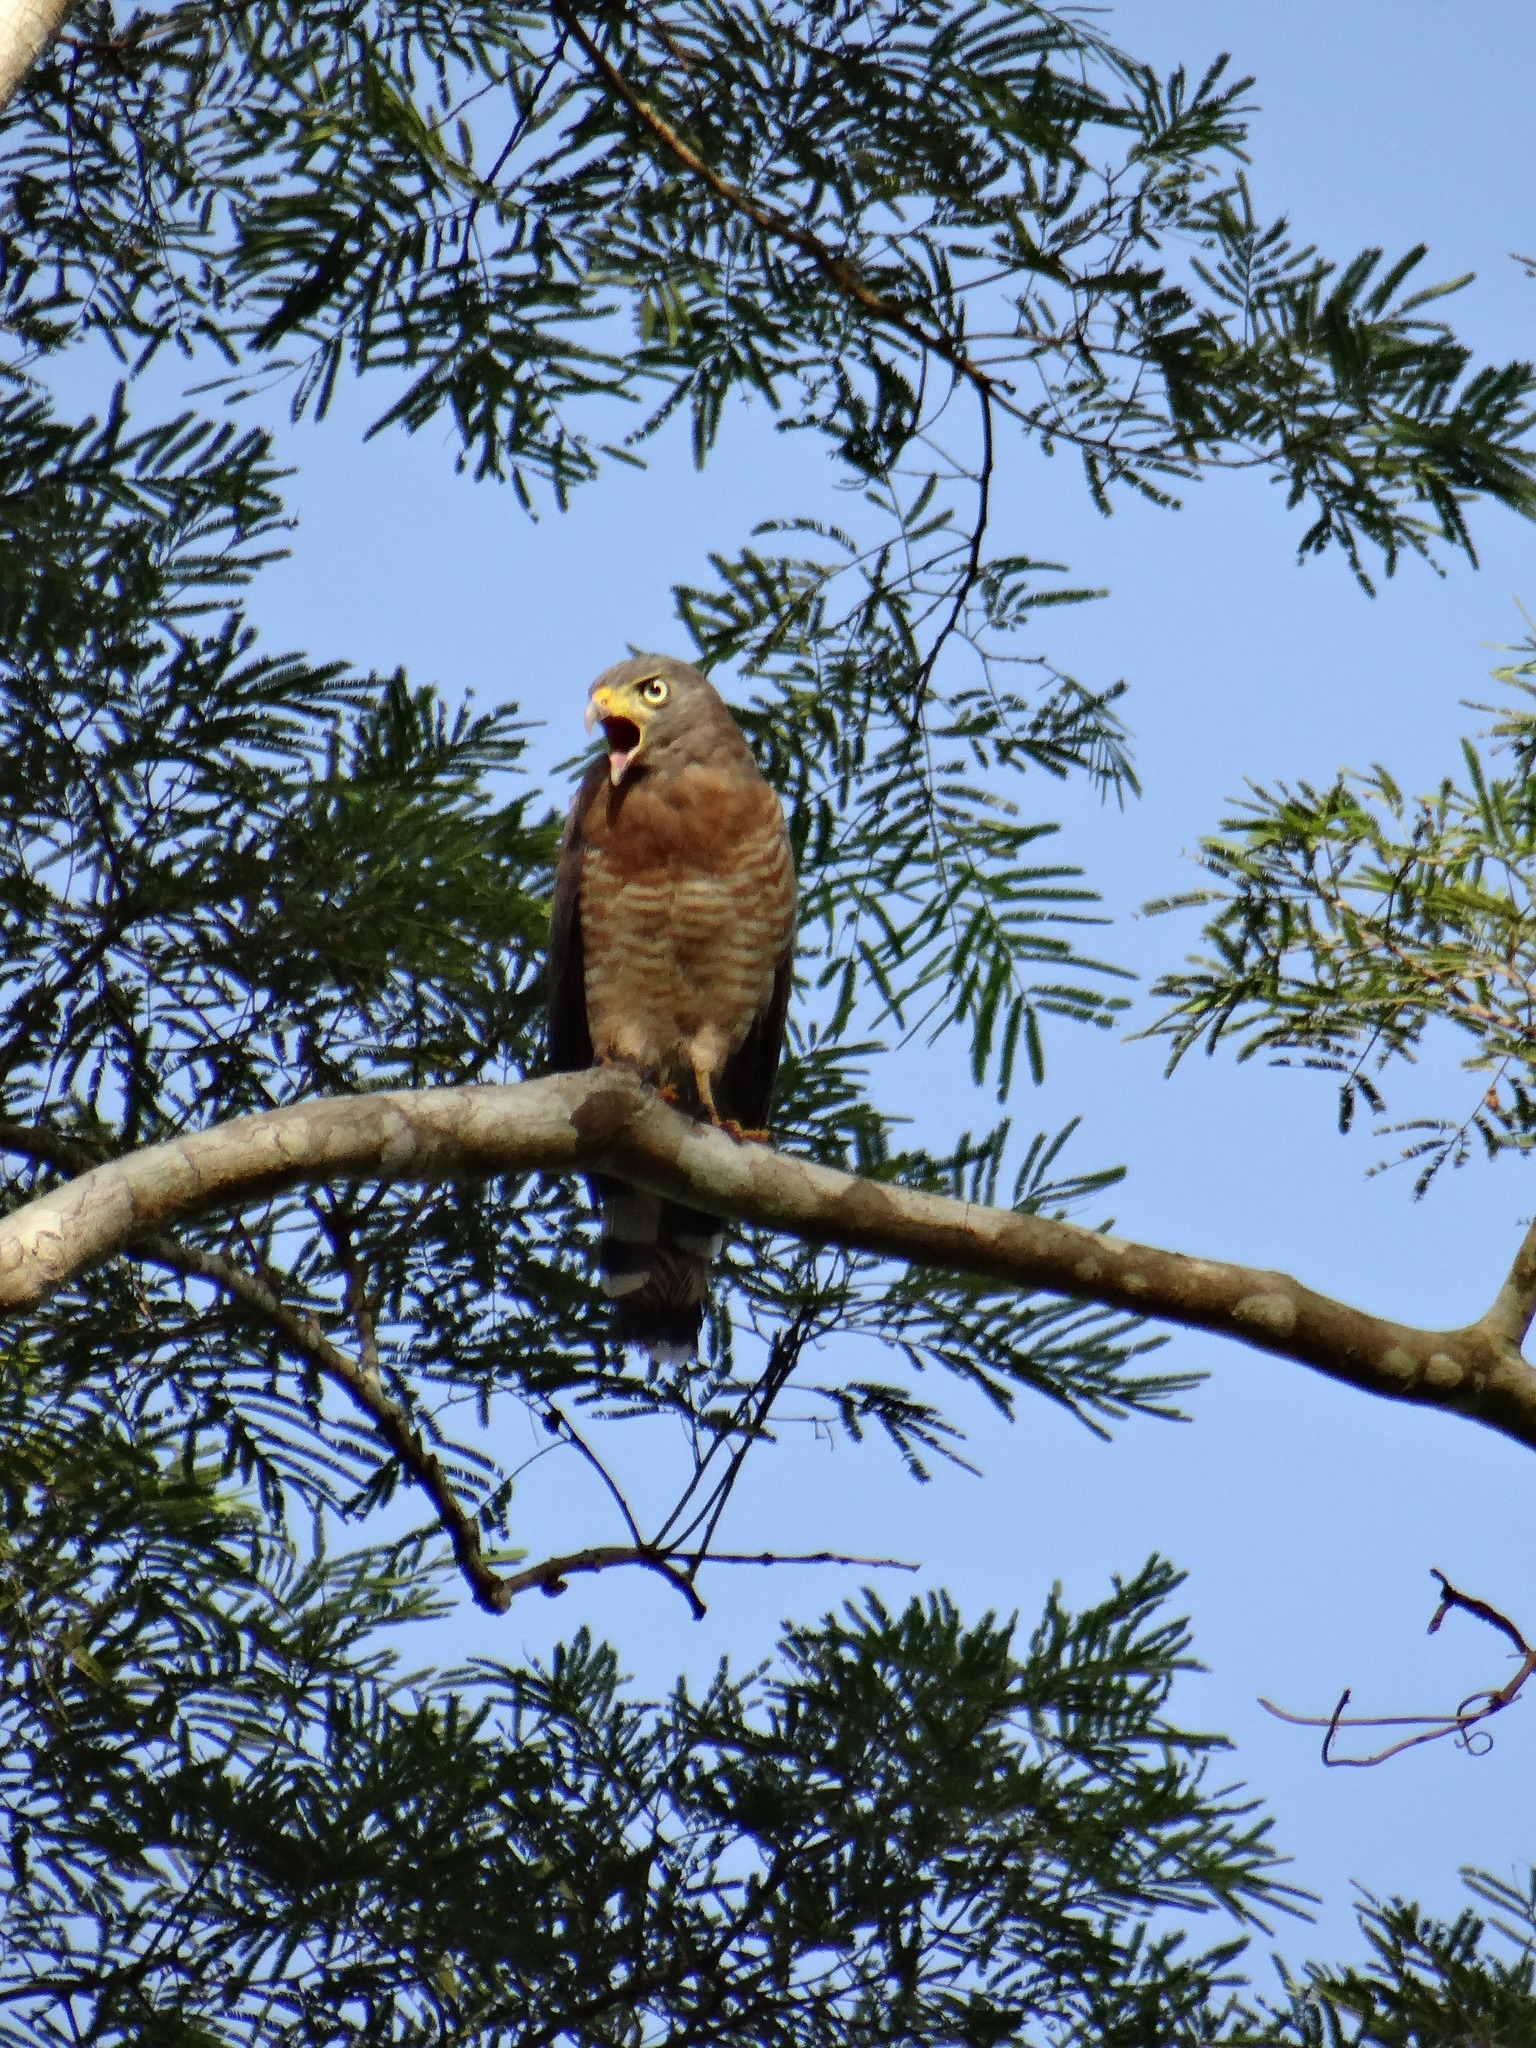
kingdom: Animalia
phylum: Chordata
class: Aves
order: Accipitriformes
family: Accipitridae
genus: Rupornis
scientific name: Rupornis magnirostris
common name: Roadside hawk
